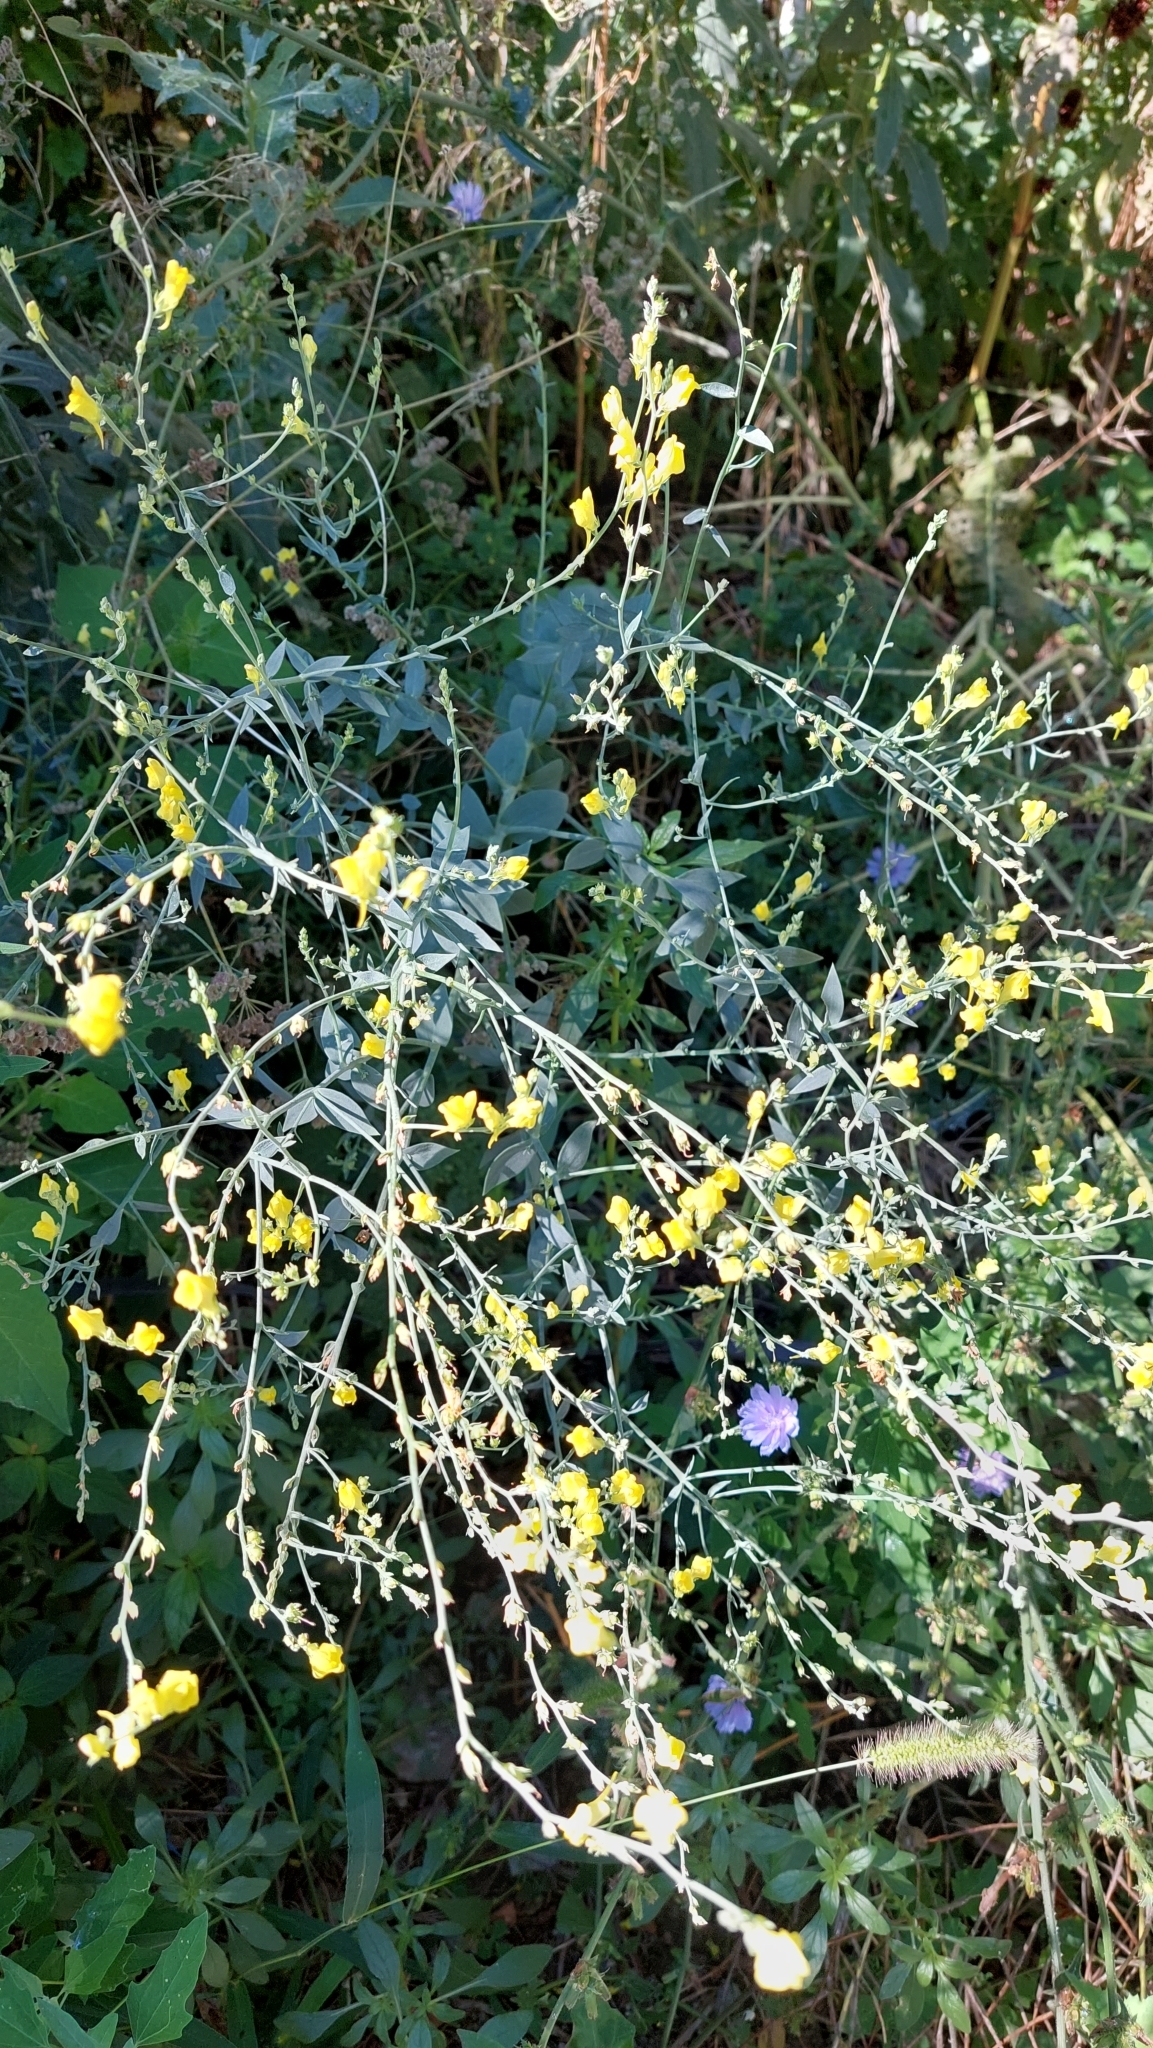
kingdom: Plantae
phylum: Tracheophyta
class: Magnoliopsida
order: Lamiales
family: Plantaginaceae
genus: Linaria
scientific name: Linaria genistifolia
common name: Broomleaf toadflax
